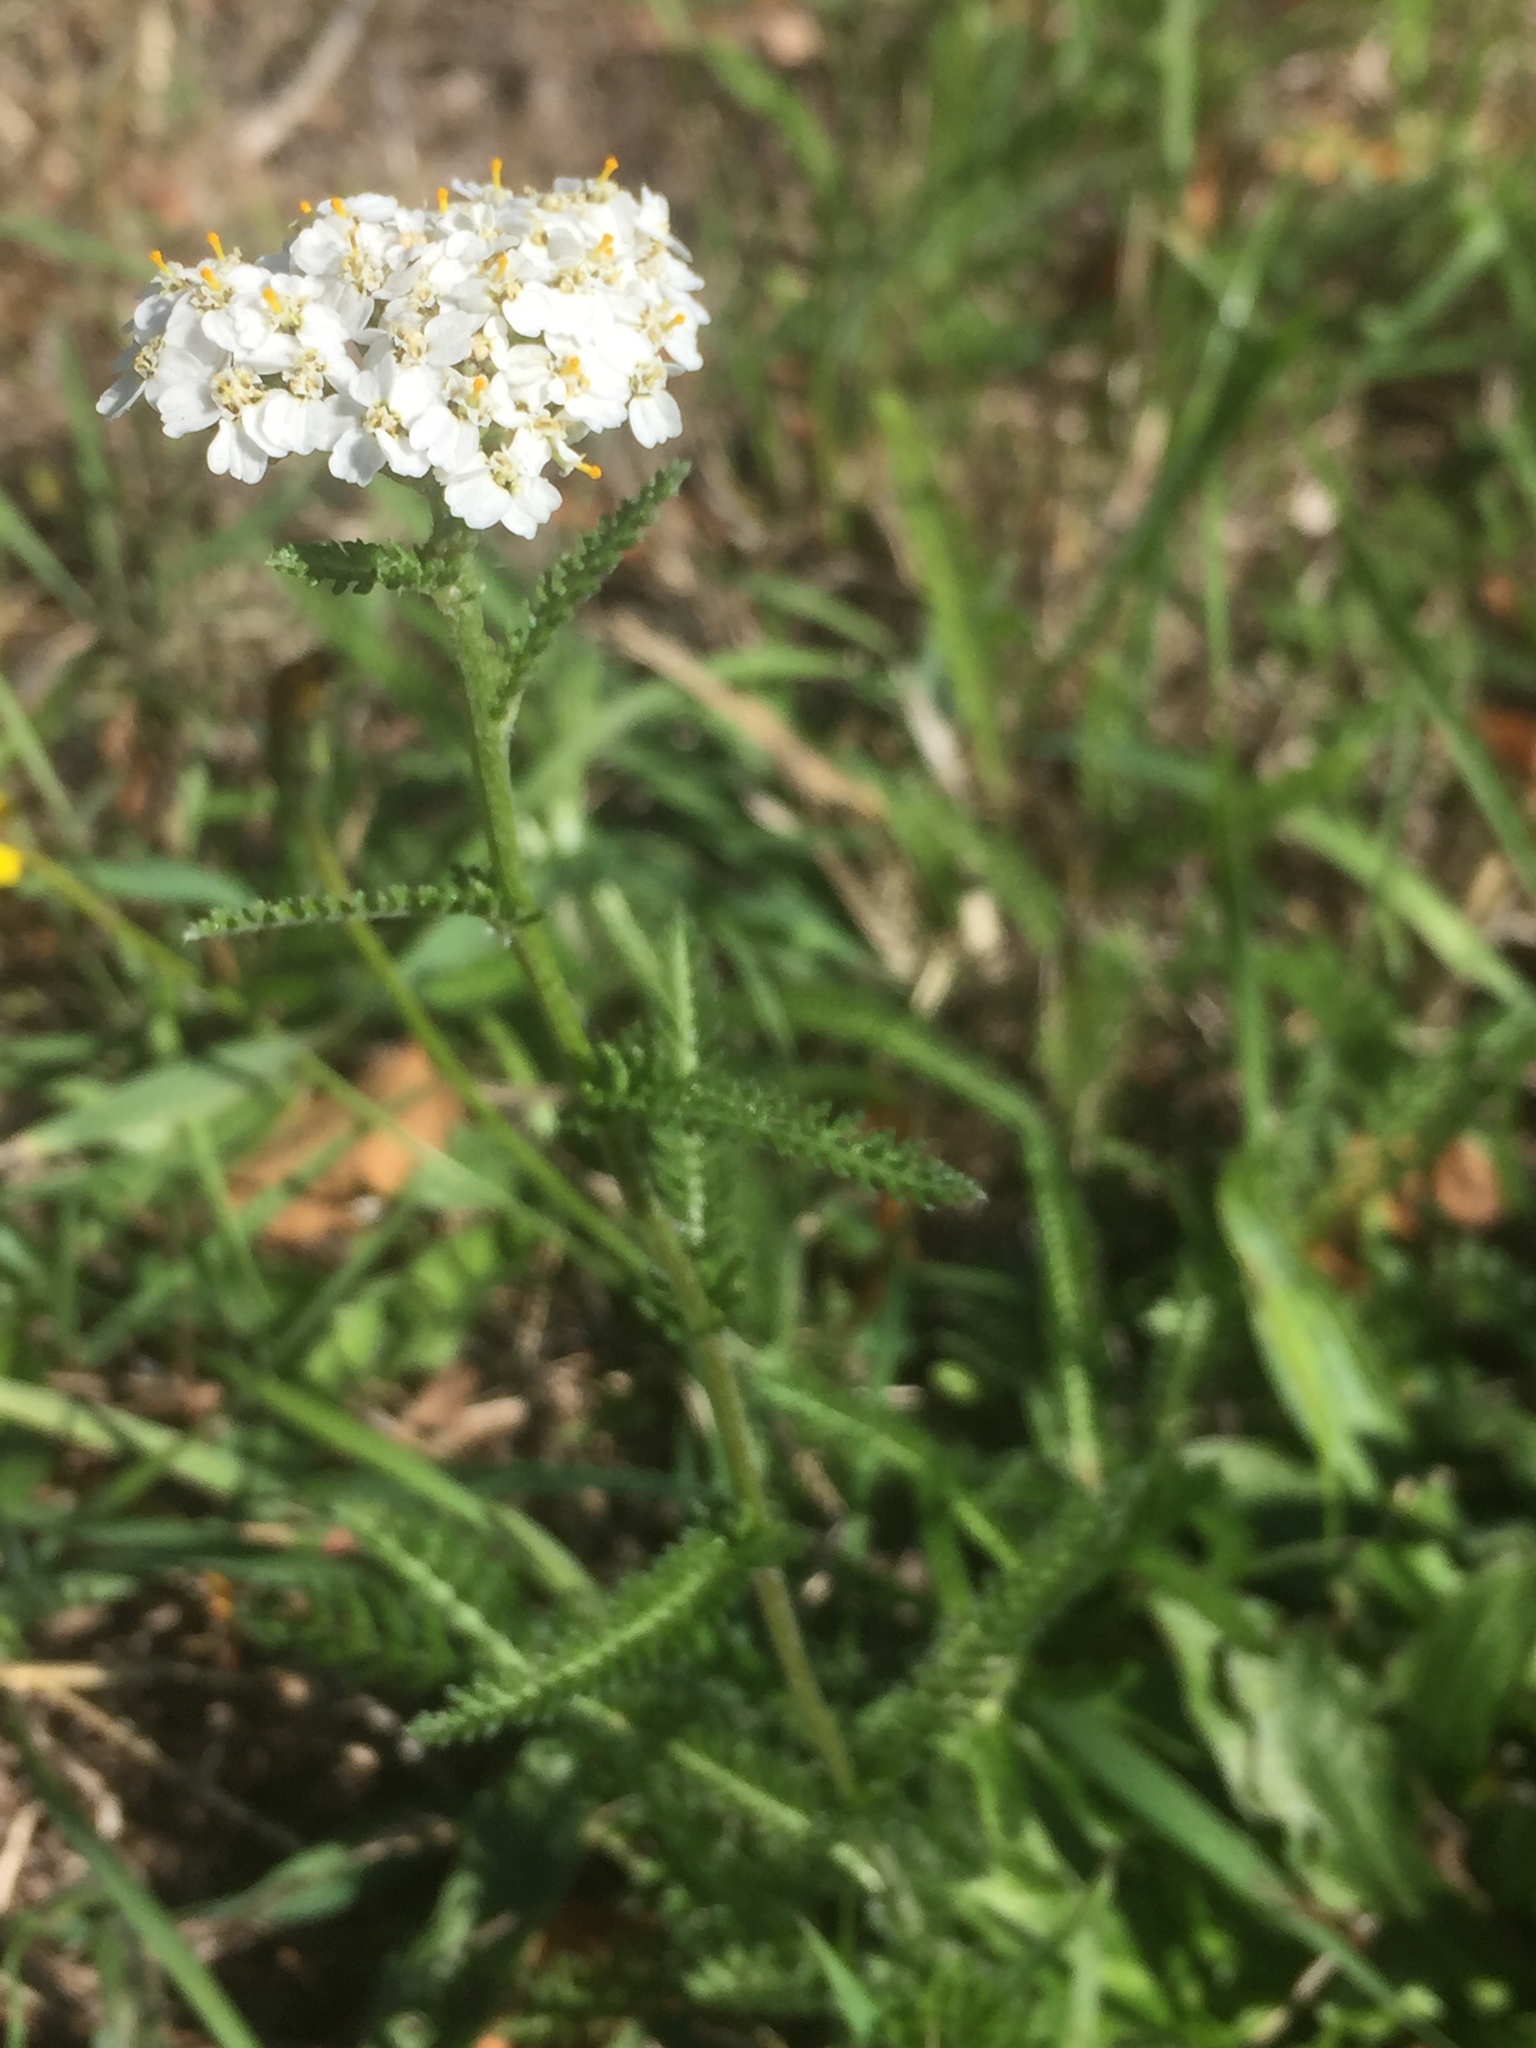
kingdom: Plantae
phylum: Tracheophyta
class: Magnoliopsida
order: Asterales
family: Asteraceae
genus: Achillea
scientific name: Achillea millefolium
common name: Yarrow
